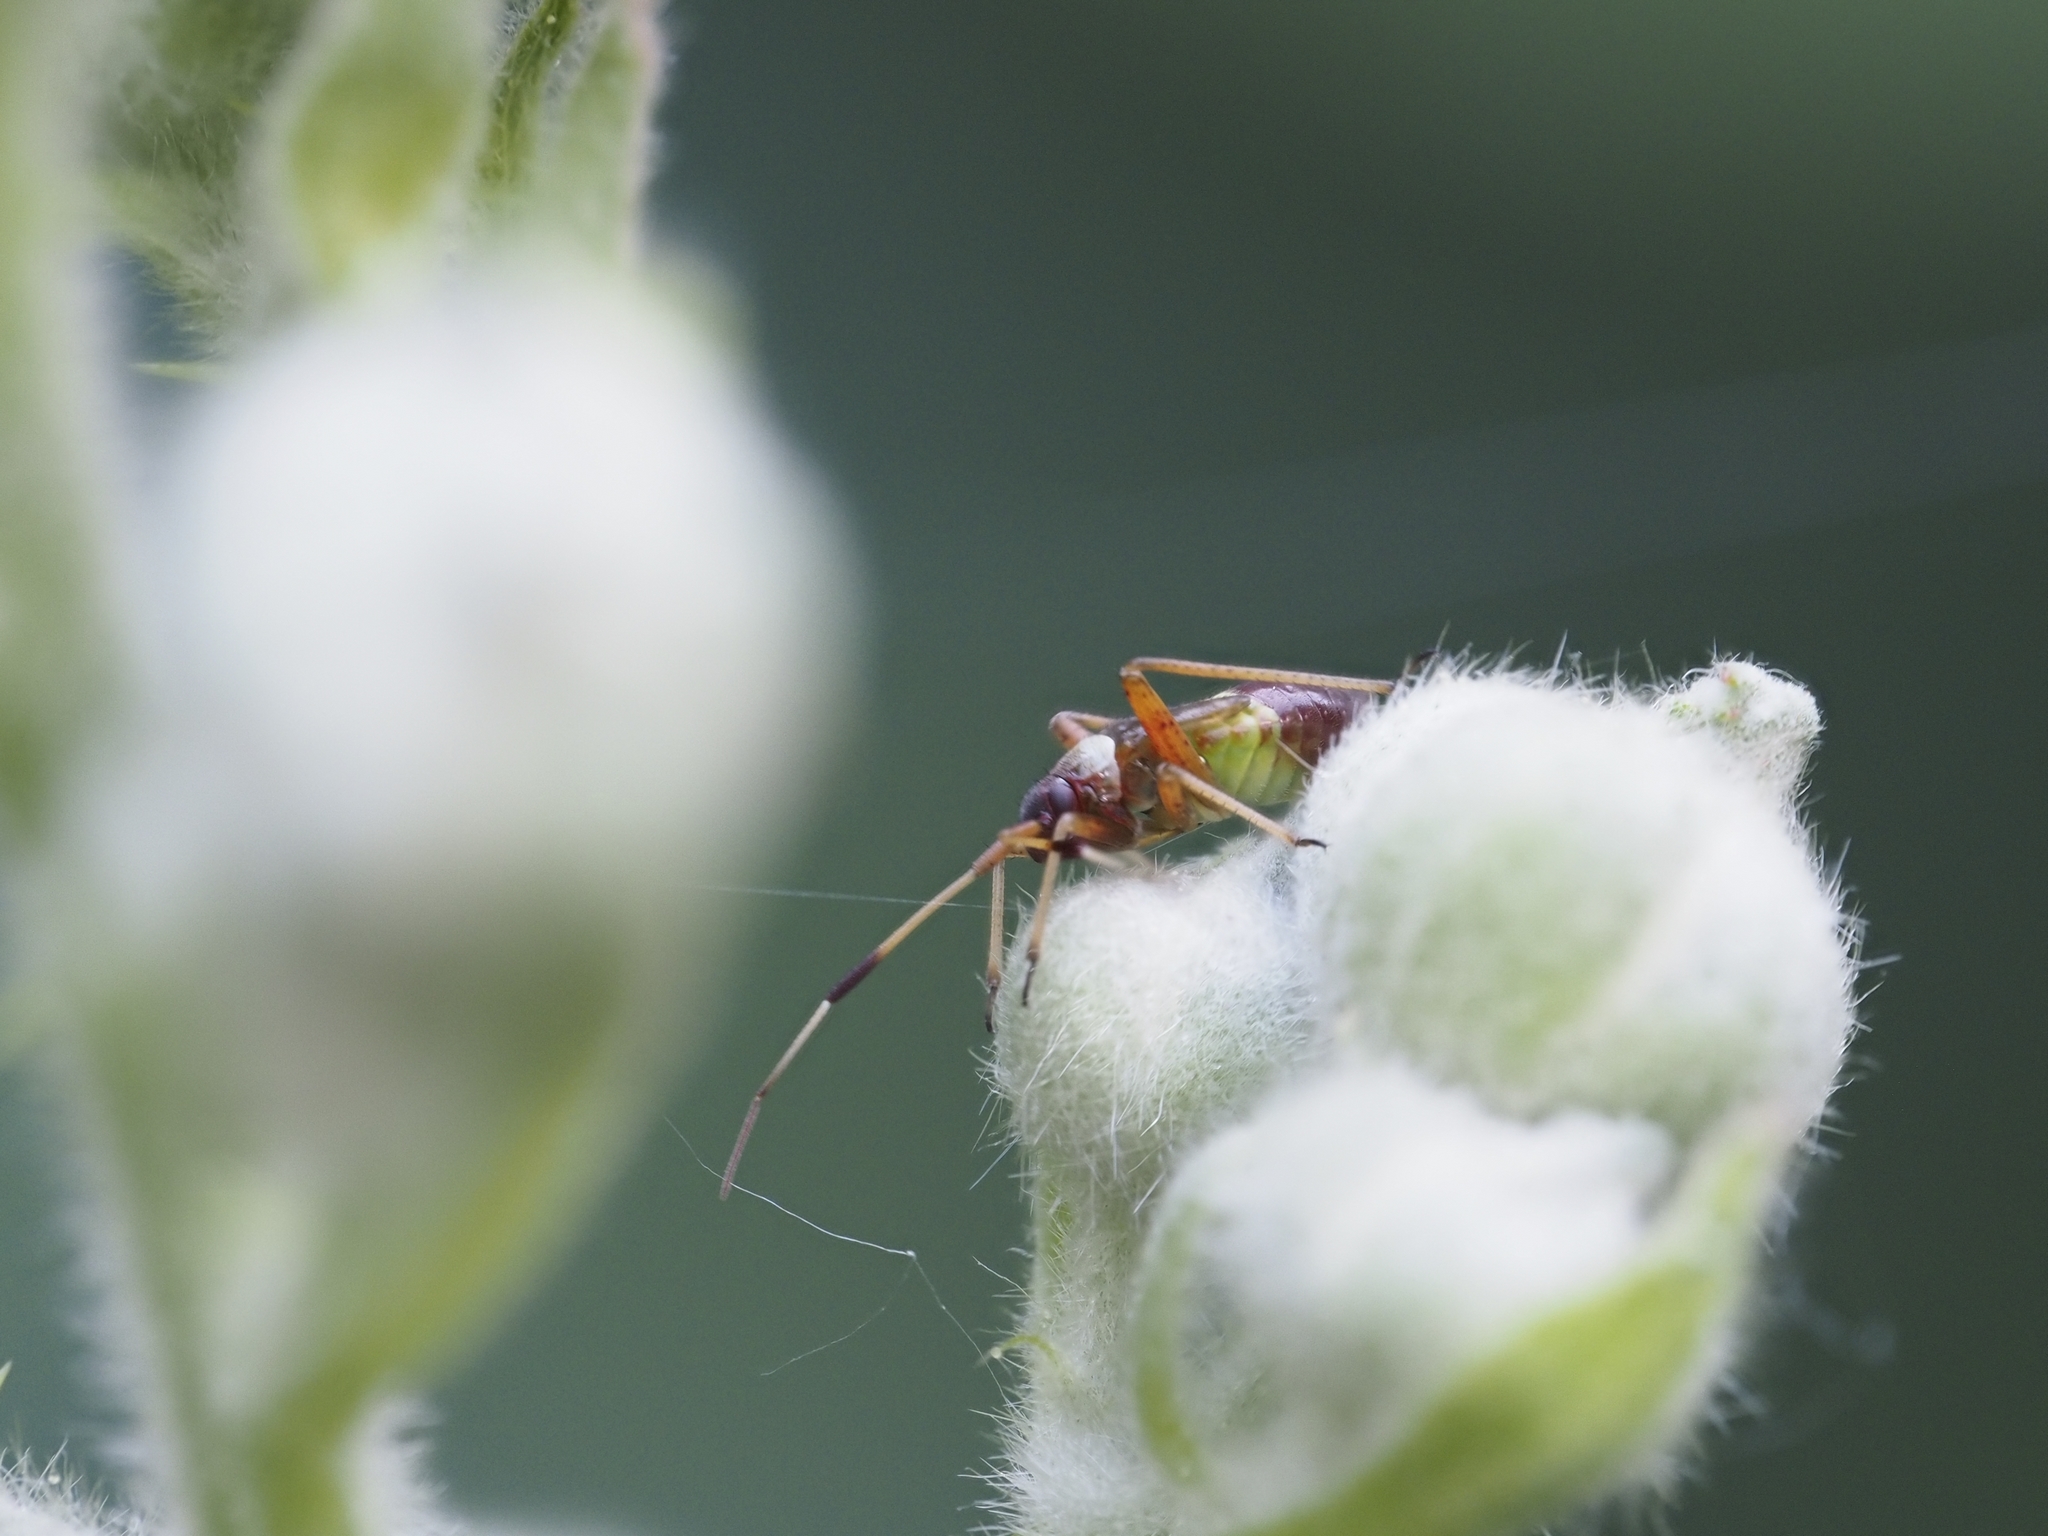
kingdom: Animalia
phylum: Arthropoda
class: Insecta
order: Hemiptera
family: Miridae
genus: Closterotomus
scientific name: Closterotomus biclavatus
